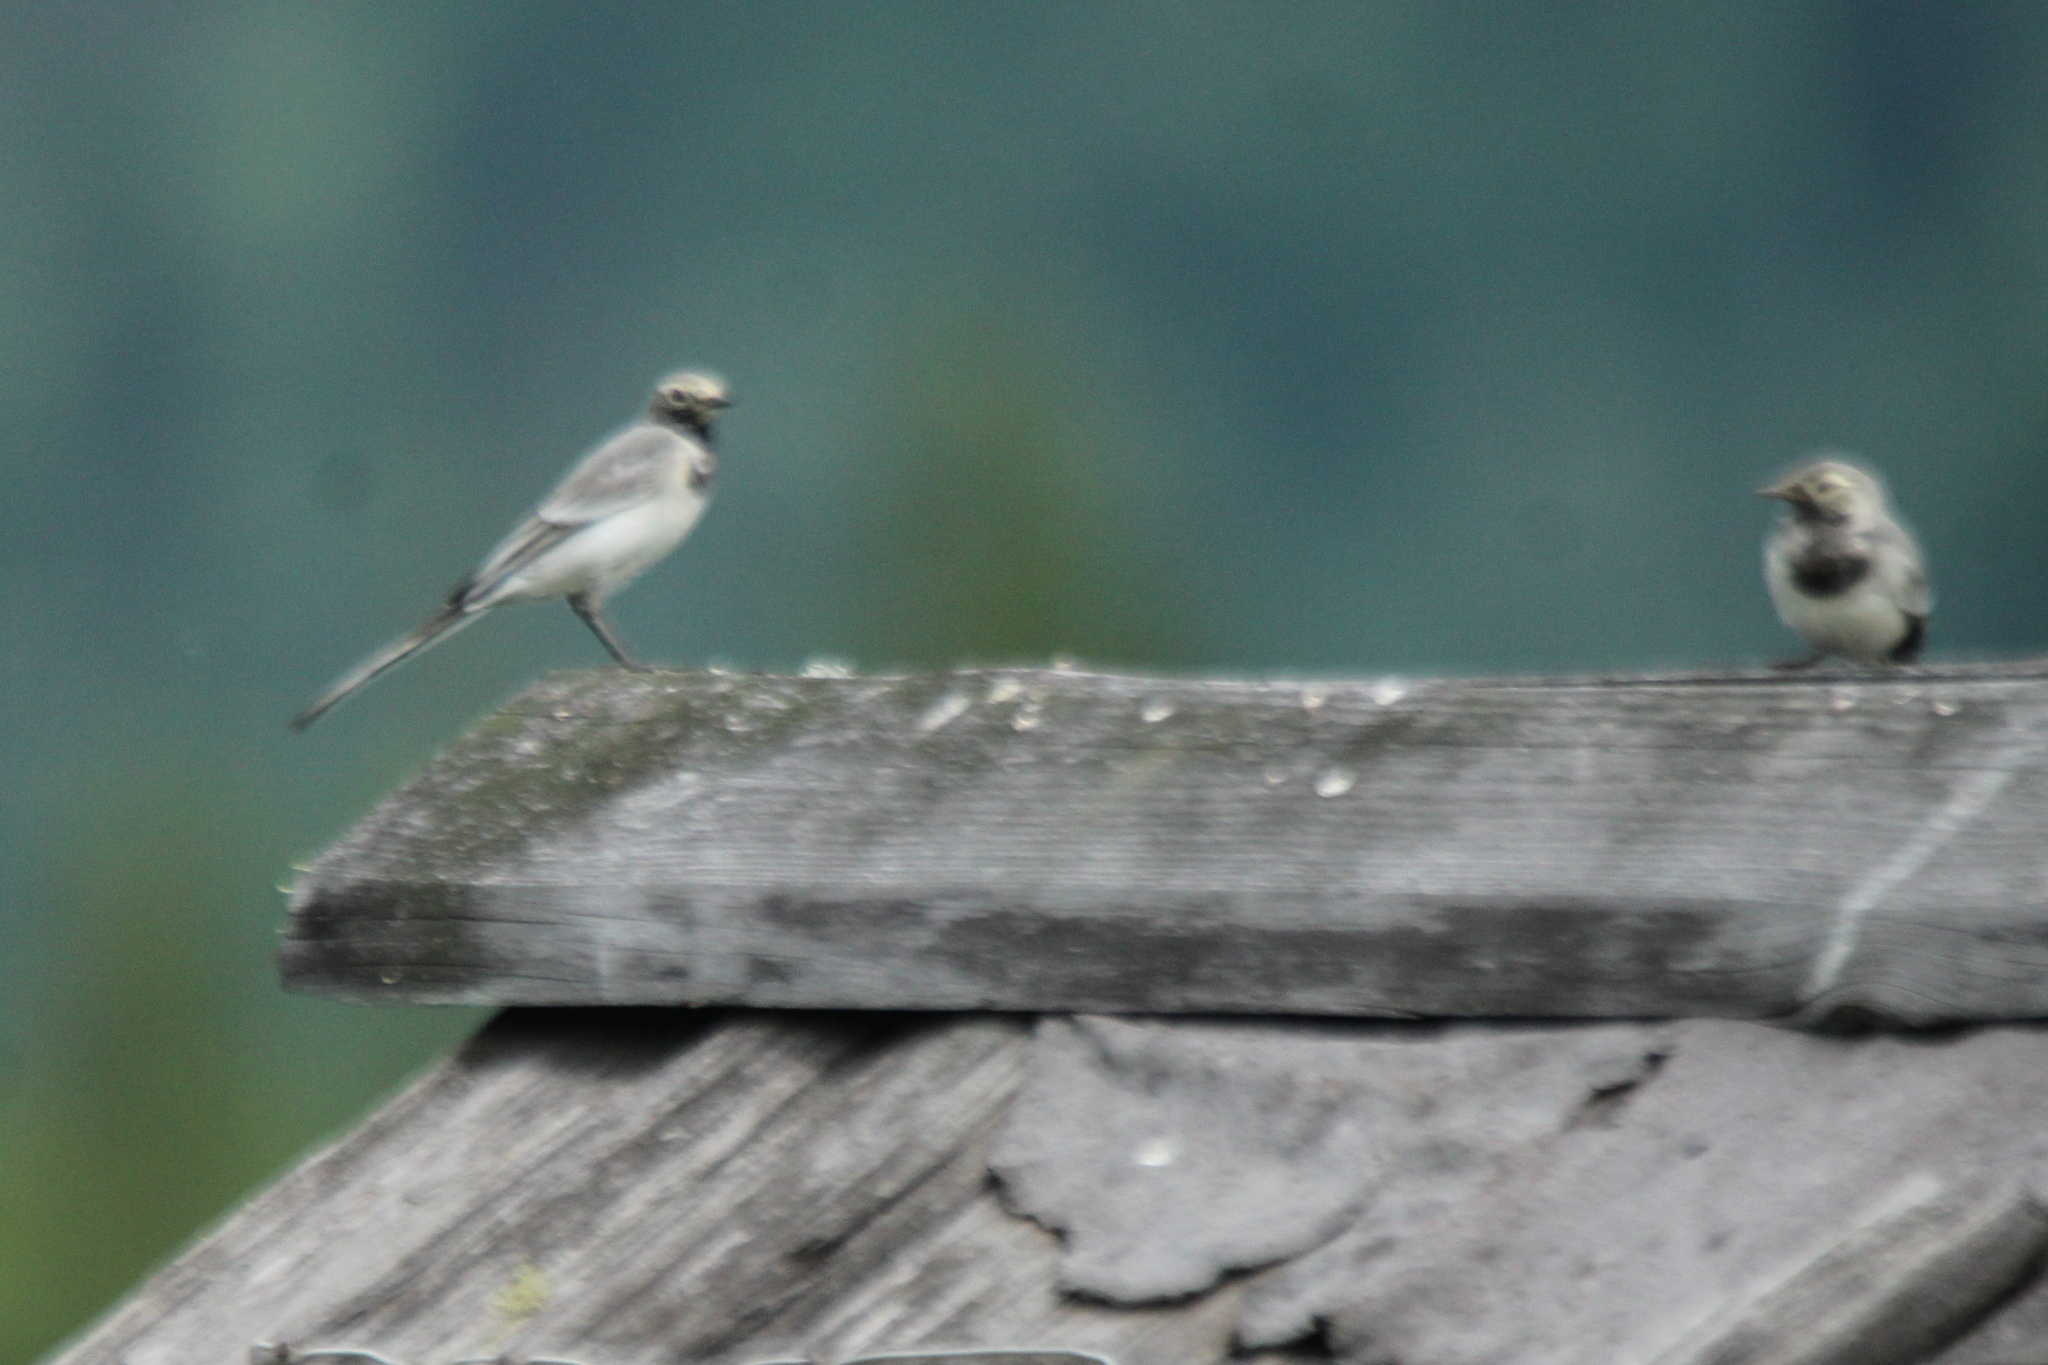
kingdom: Animalia
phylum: Chordata
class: Aves
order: Passeriformes
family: Motacillidae
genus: Motacilla
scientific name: Motacilla alba
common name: White wagtail
